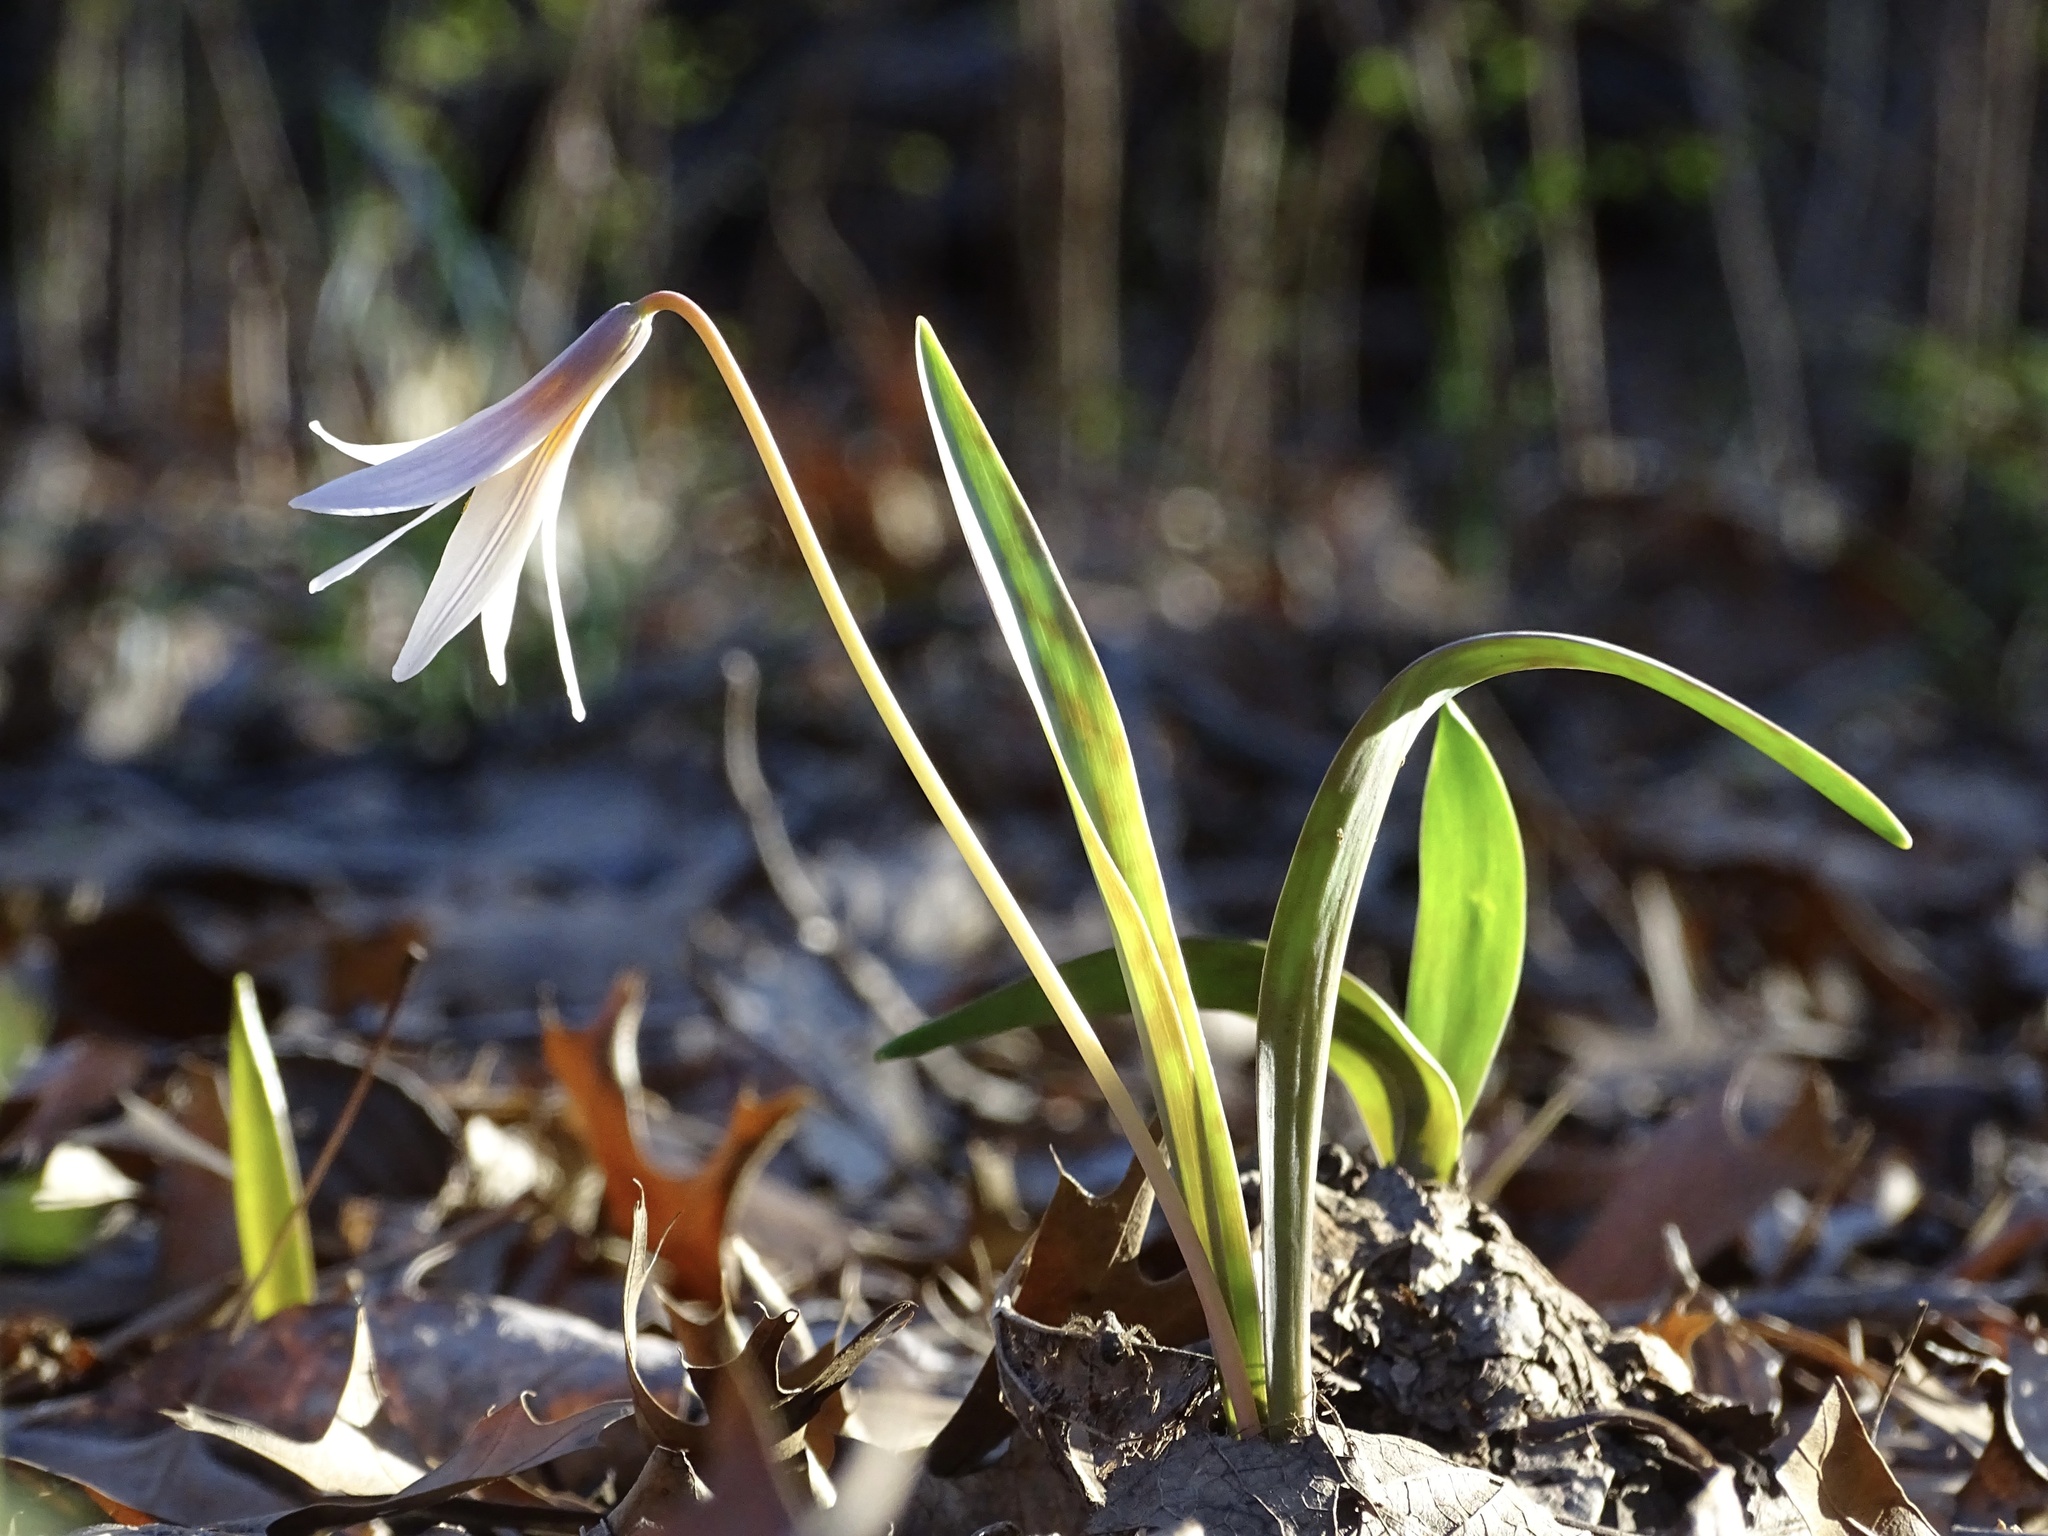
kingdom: Plantae
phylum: Tracheophyta
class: Liliopsida
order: Liliales
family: Liliaceae
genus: Erythronium
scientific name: Erythronium albidum
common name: White trout-lily
